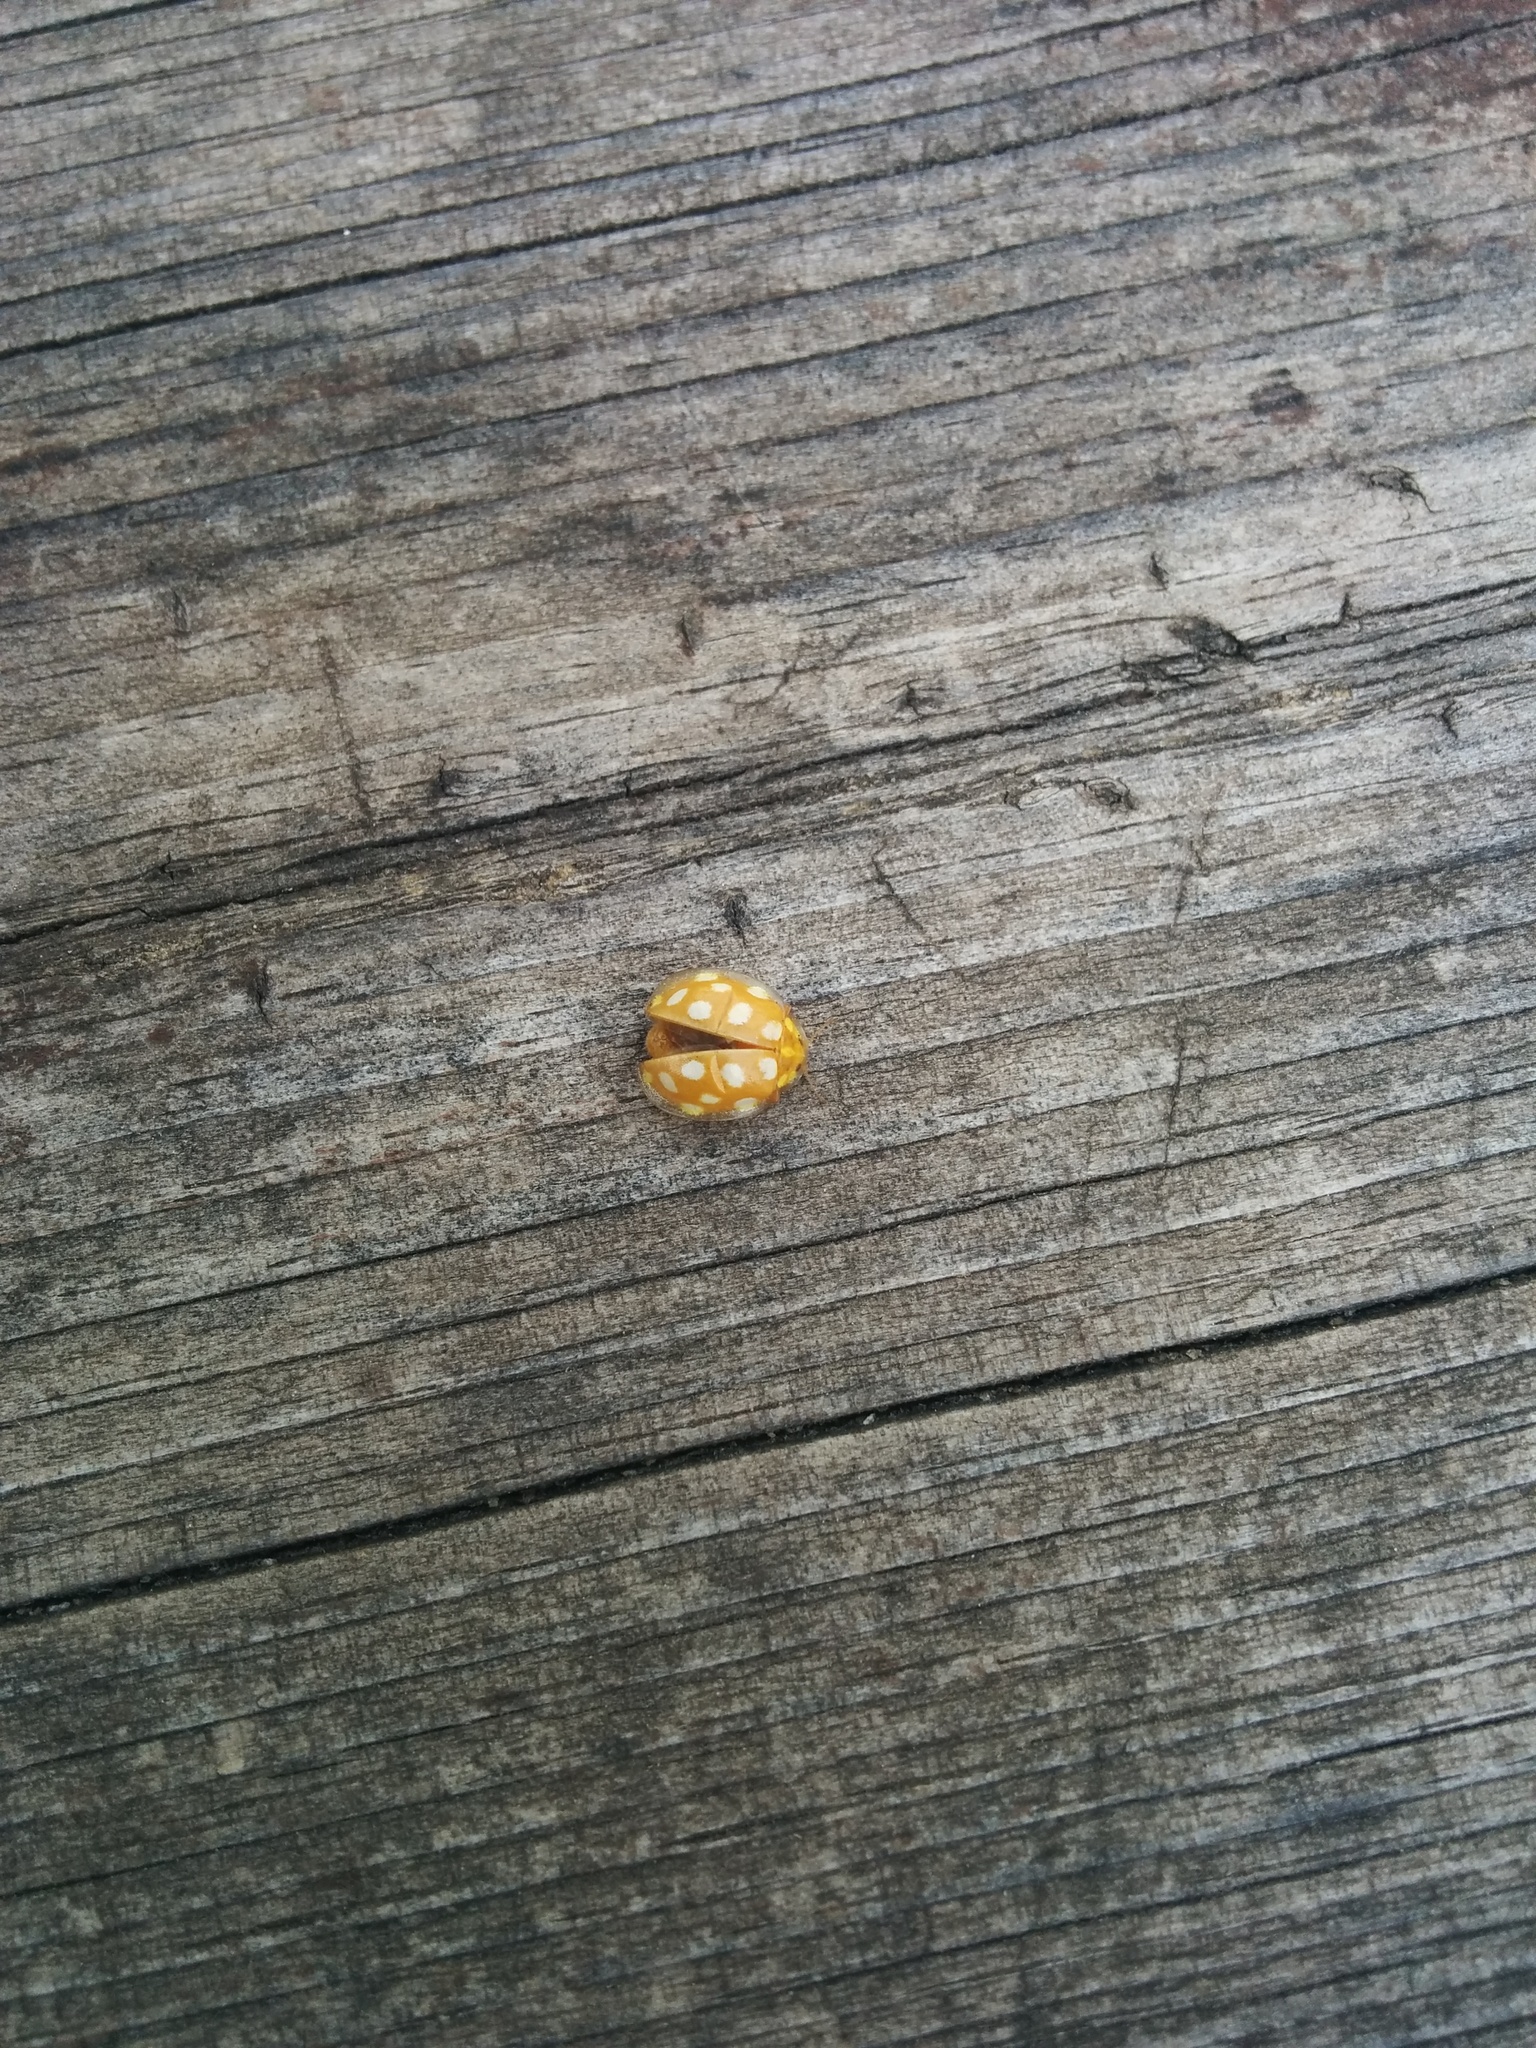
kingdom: Animalia
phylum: Arthropoda
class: Insecta
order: Coleoptera
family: Coccinellidae
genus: Halyzia
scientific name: Halyzia sedecimguttata
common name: Orange ladybird
